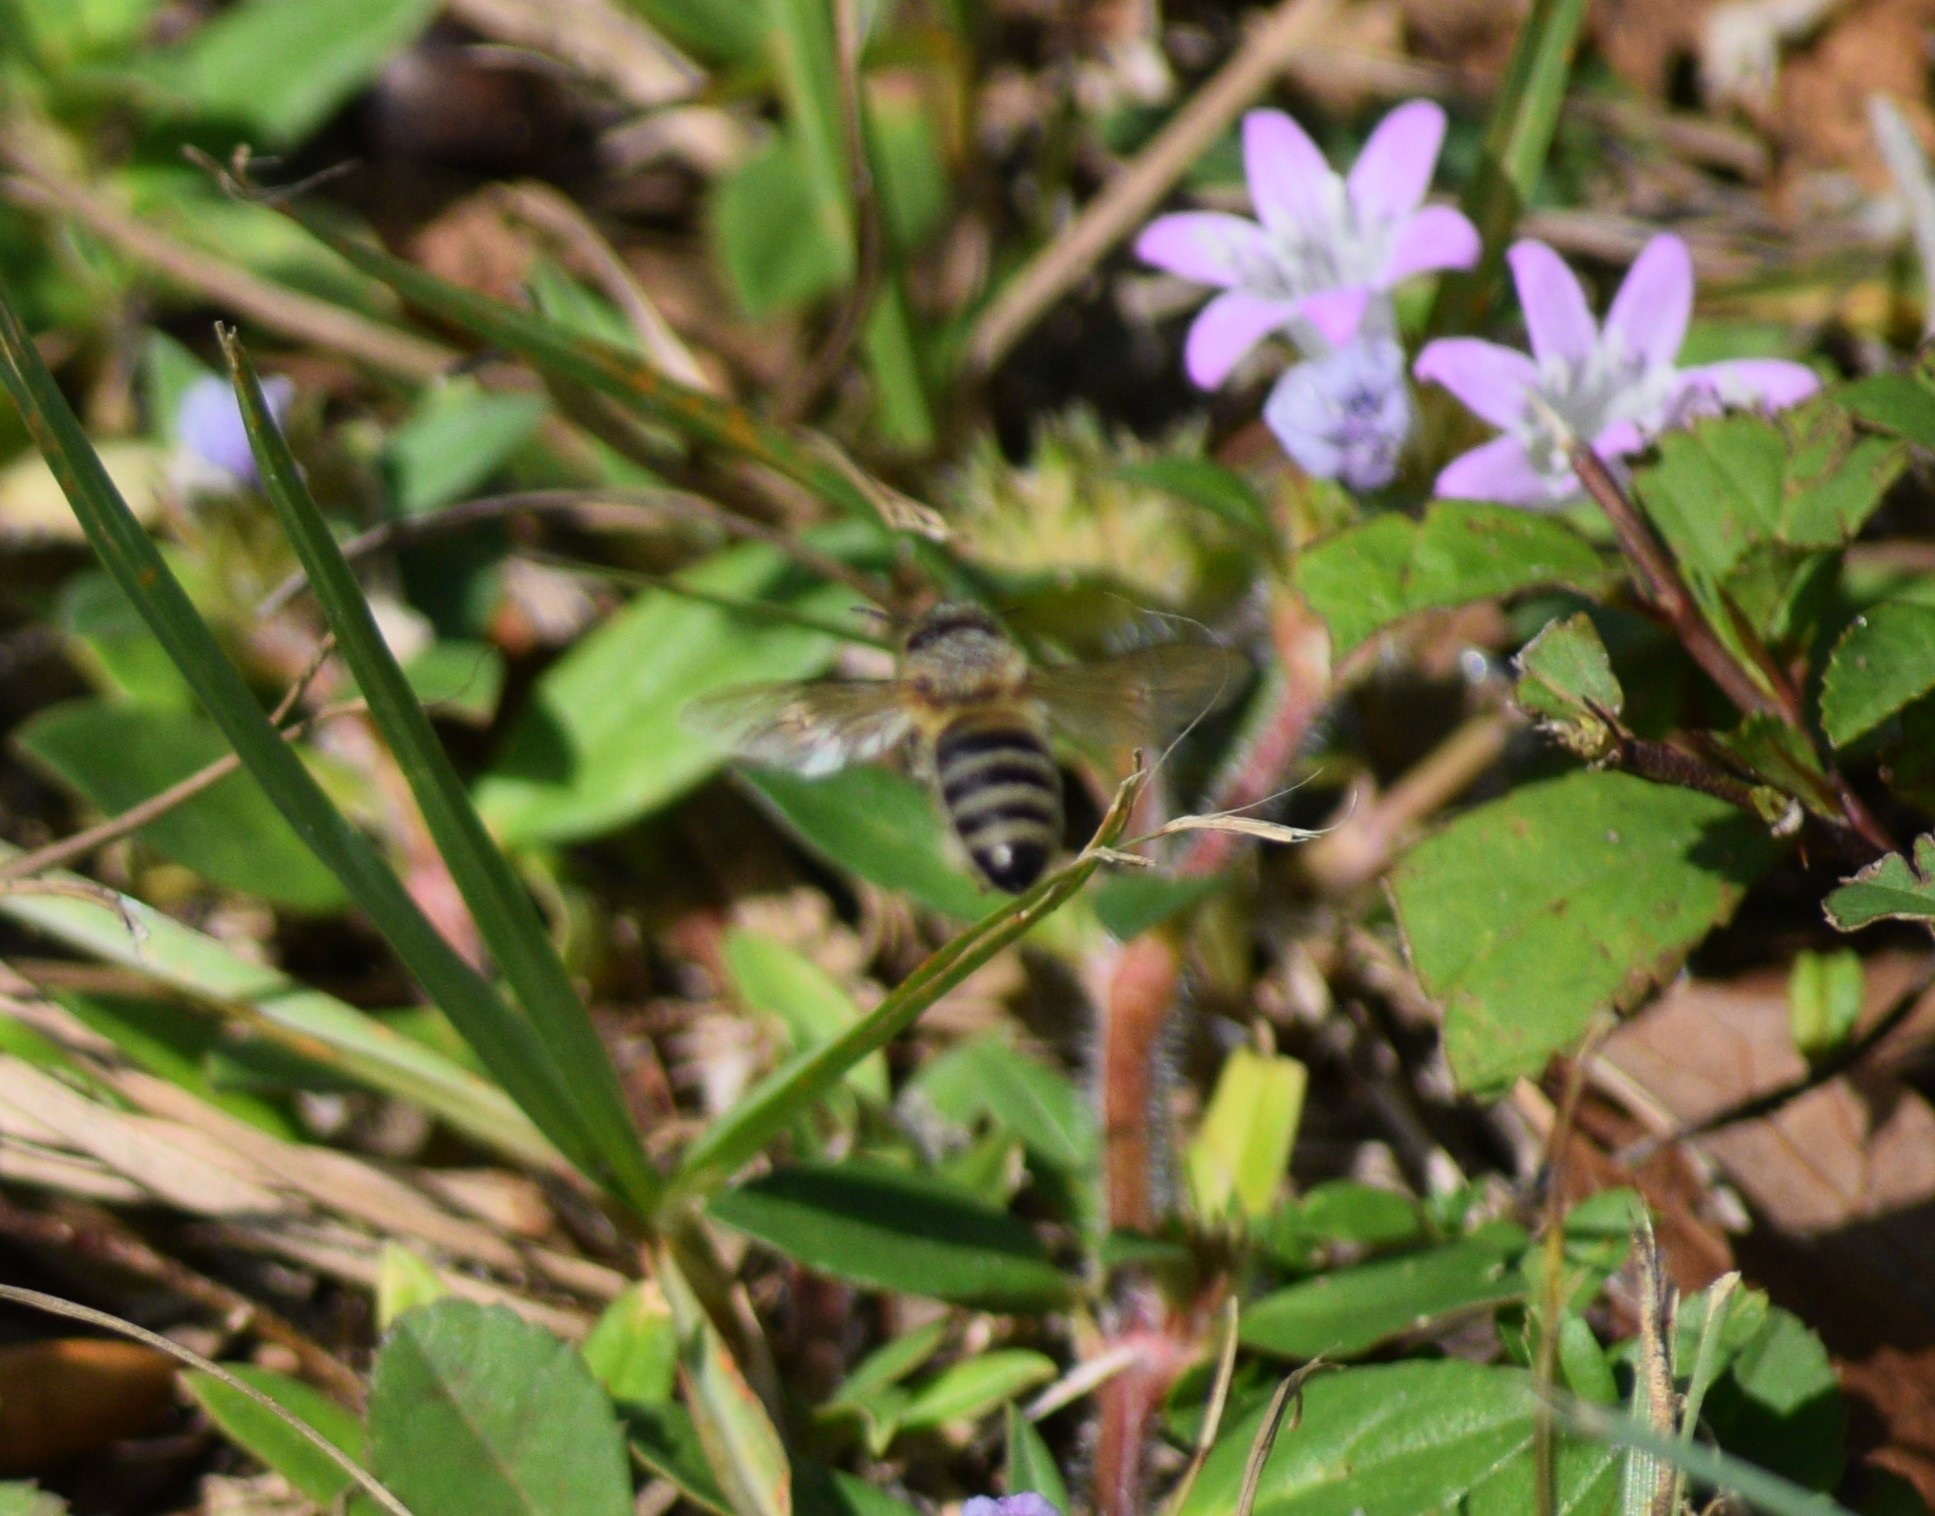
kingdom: Animalia
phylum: Arthropoda
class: Insecta
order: Hymenoptera
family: Apidae
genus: Apis
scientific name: Apis mellifera
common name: Honey bee
